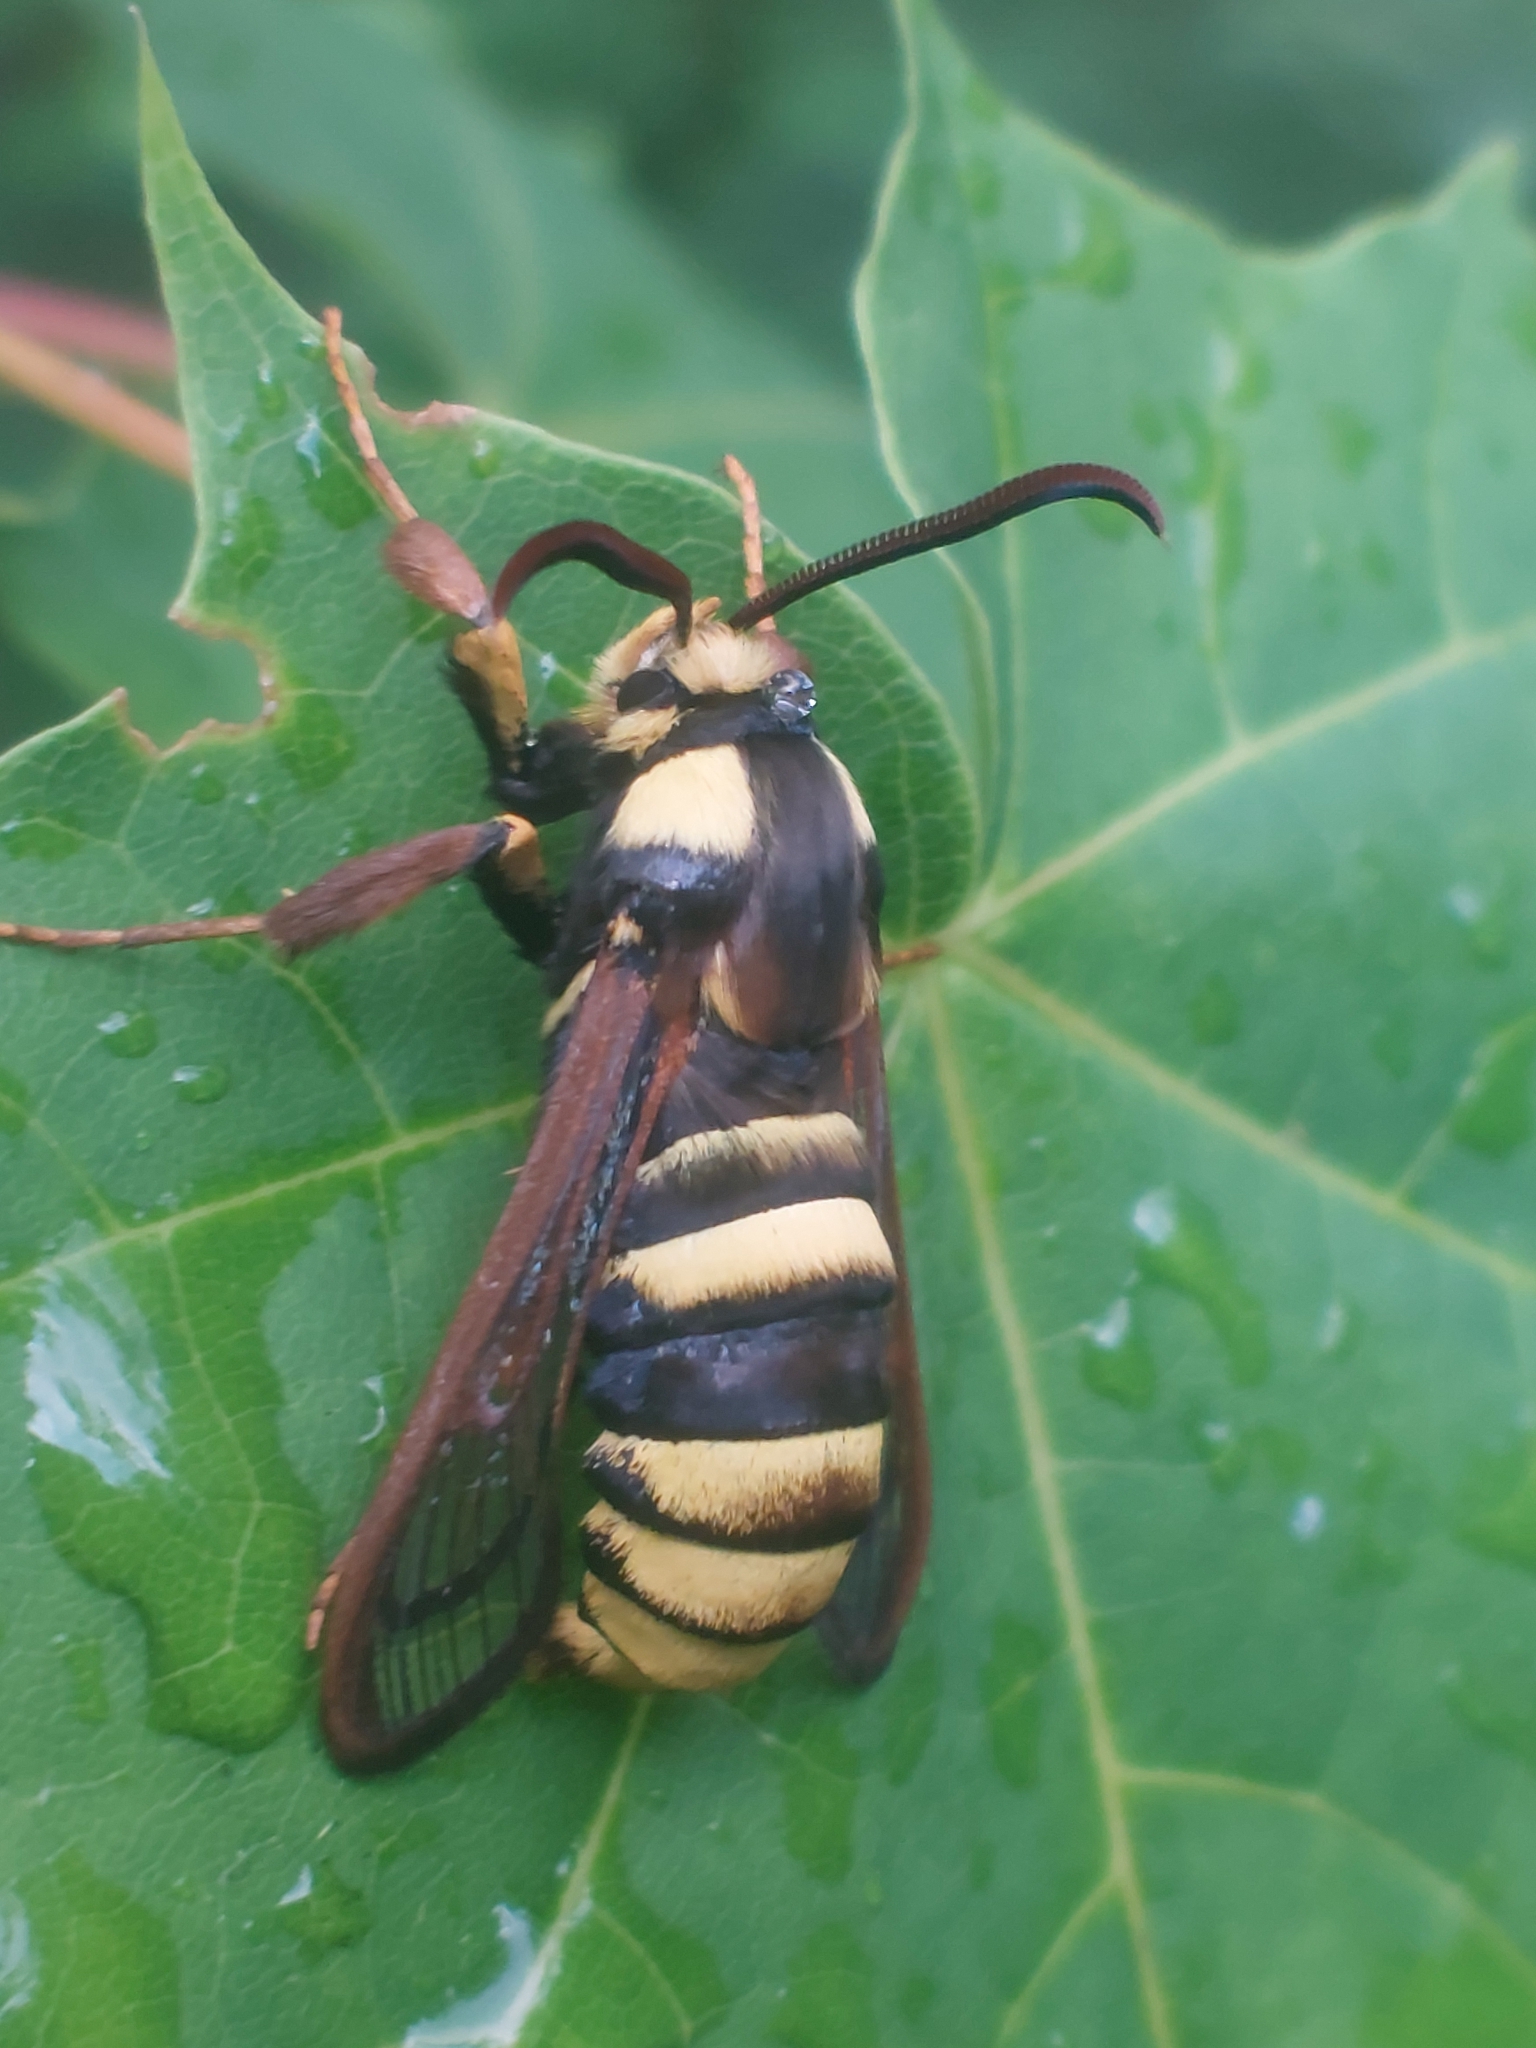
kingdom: Animalia
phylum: Arthropoda
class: Insecta
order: Lepidoptera
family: Sesiidae
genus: Sesia
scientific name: Sesia apiformis
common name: Hornet moth
